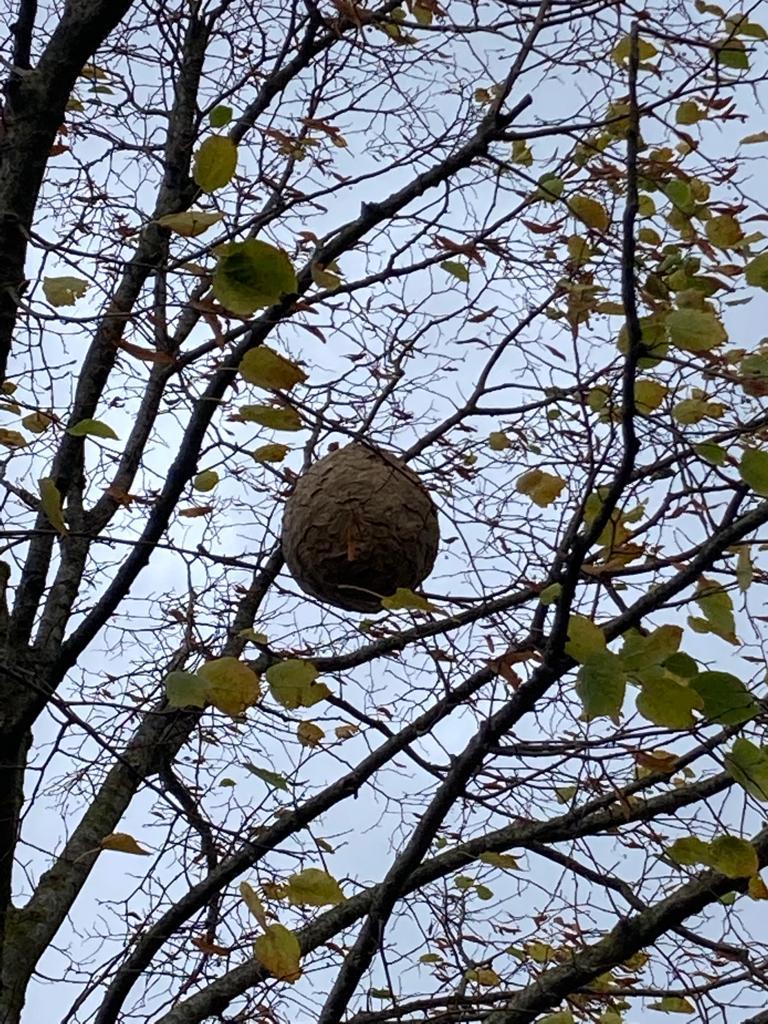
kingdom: Animalia
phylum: Arthropoda
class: Insecta
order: Hymenoptera
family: Vespidae
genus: Vespa
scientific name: Vespa velutina
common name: Asian hornet
